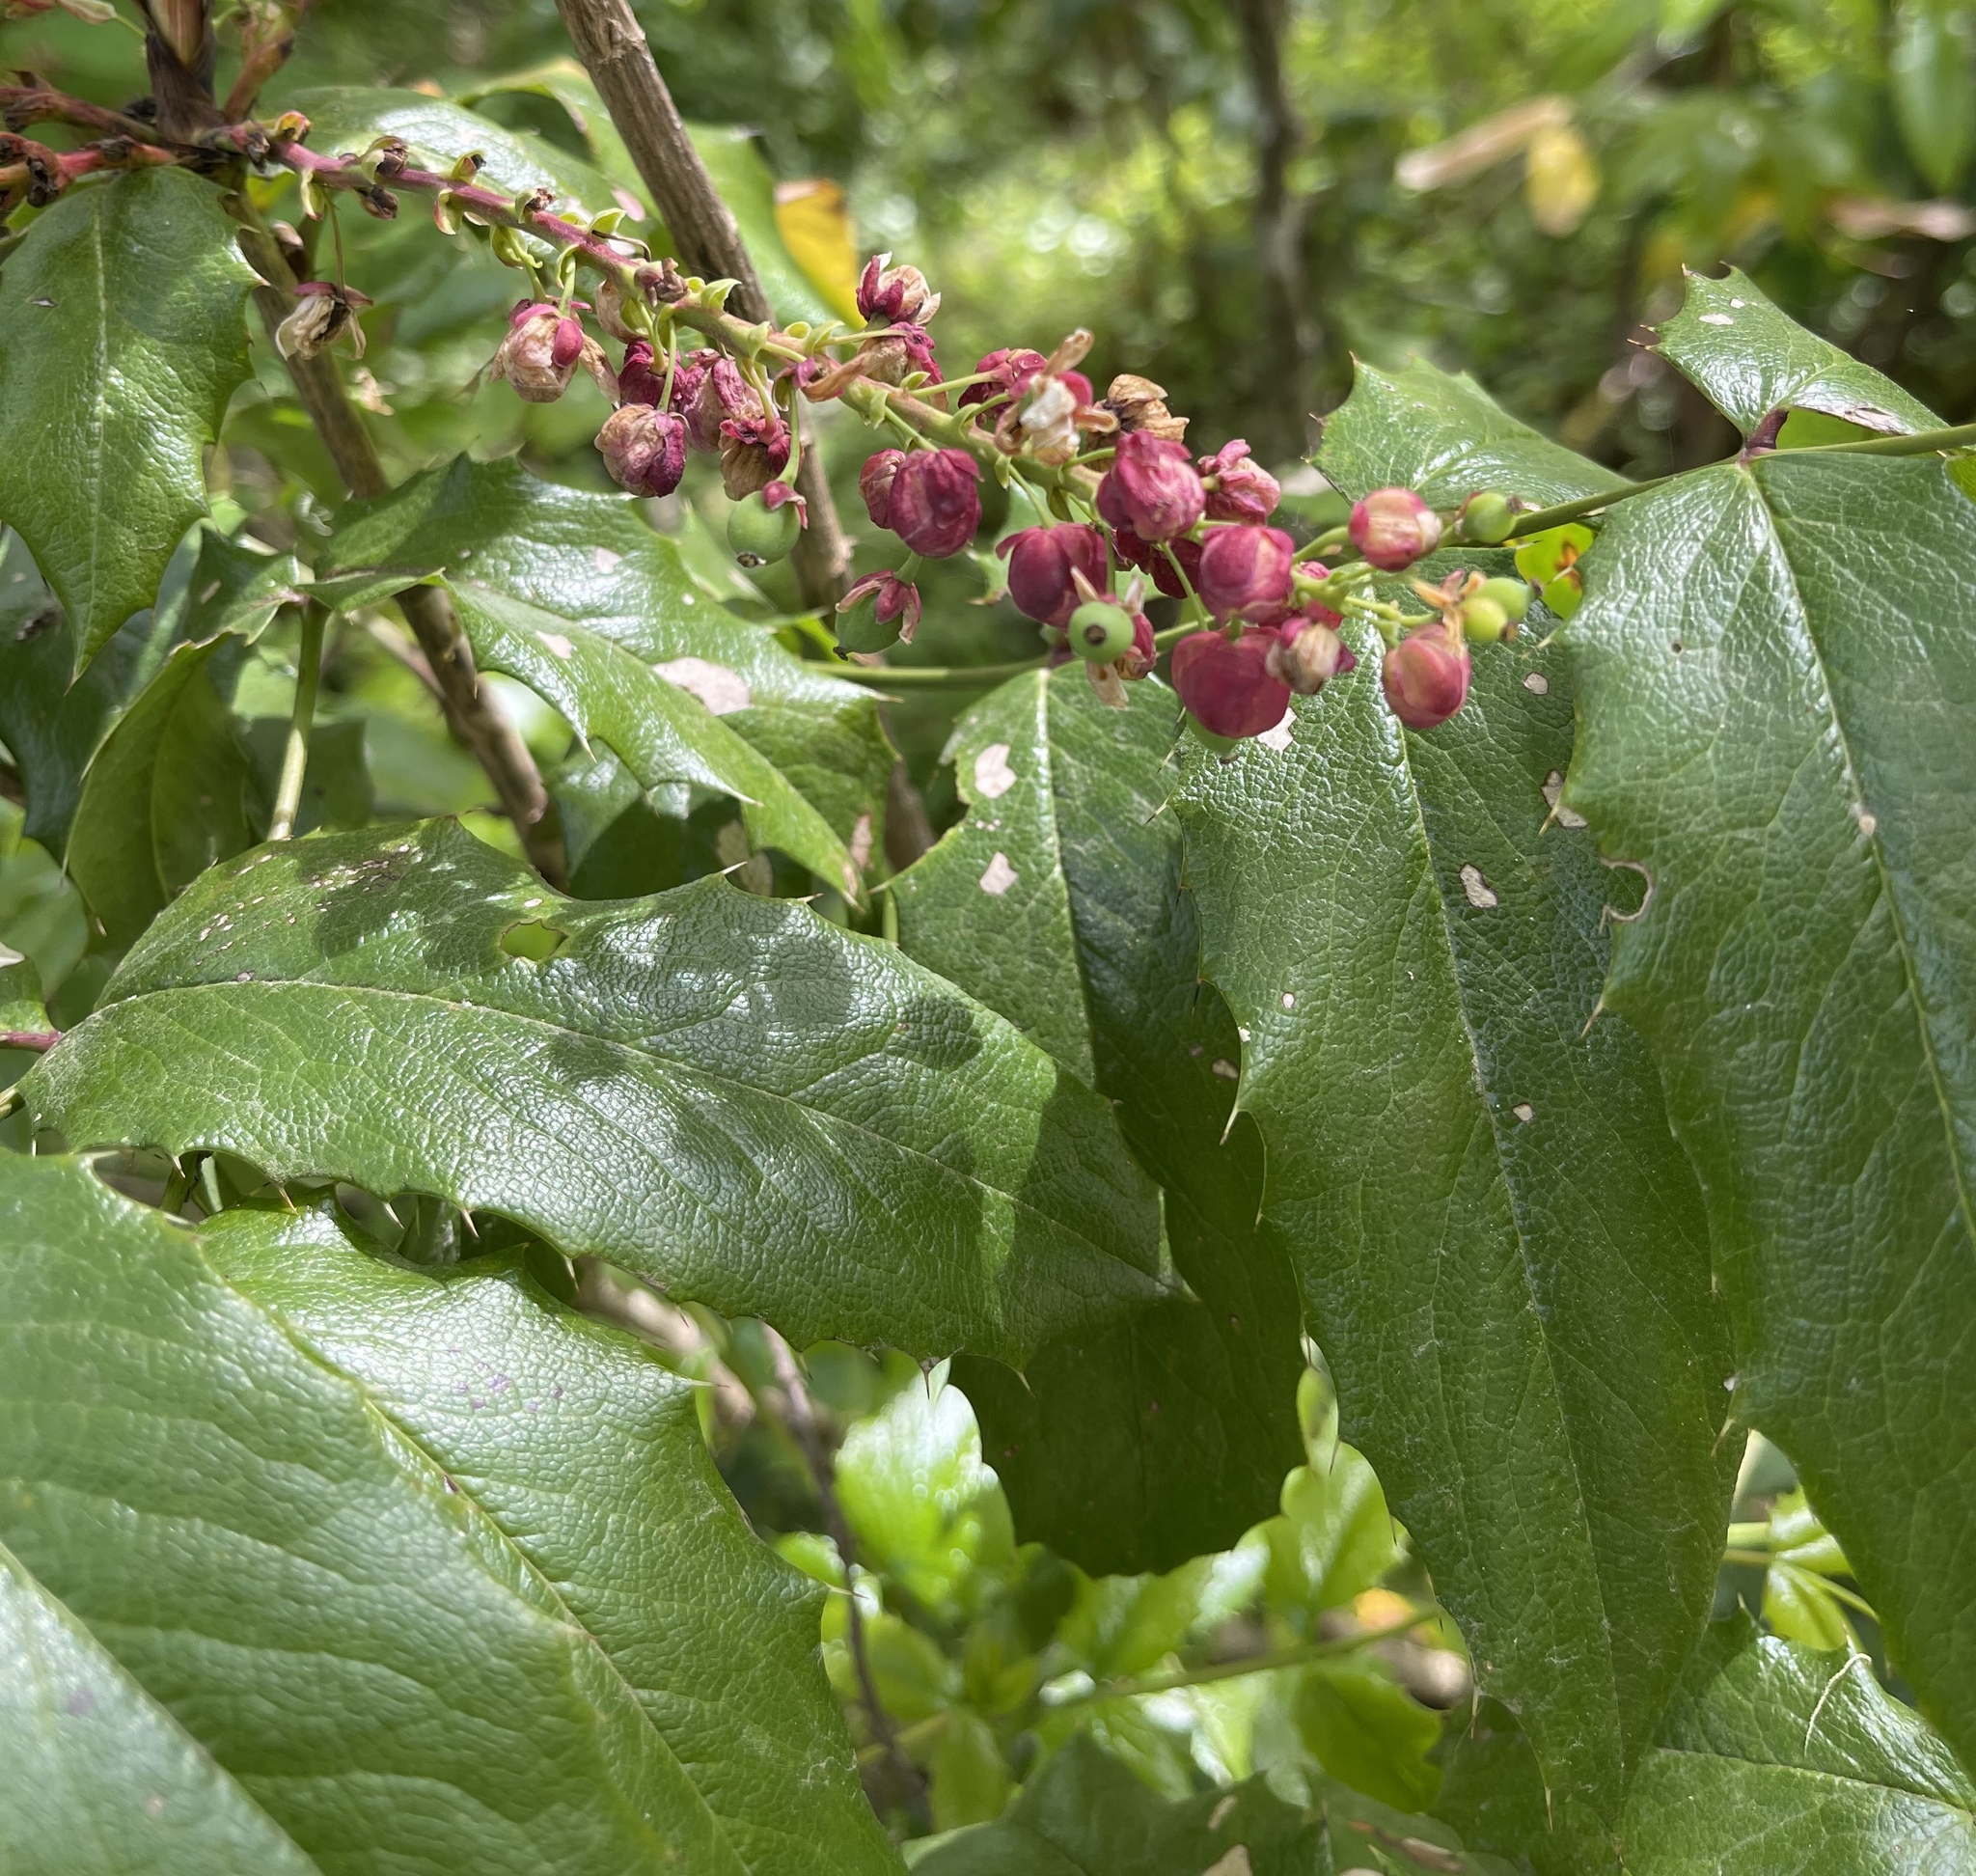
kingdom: Plantae
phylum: Tracheophyta
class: Magnoliopsida
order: Ranunculales
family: Berberidaceae
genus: Mahonia
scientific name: Mahonia aquifolium
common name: Oregon-grape
